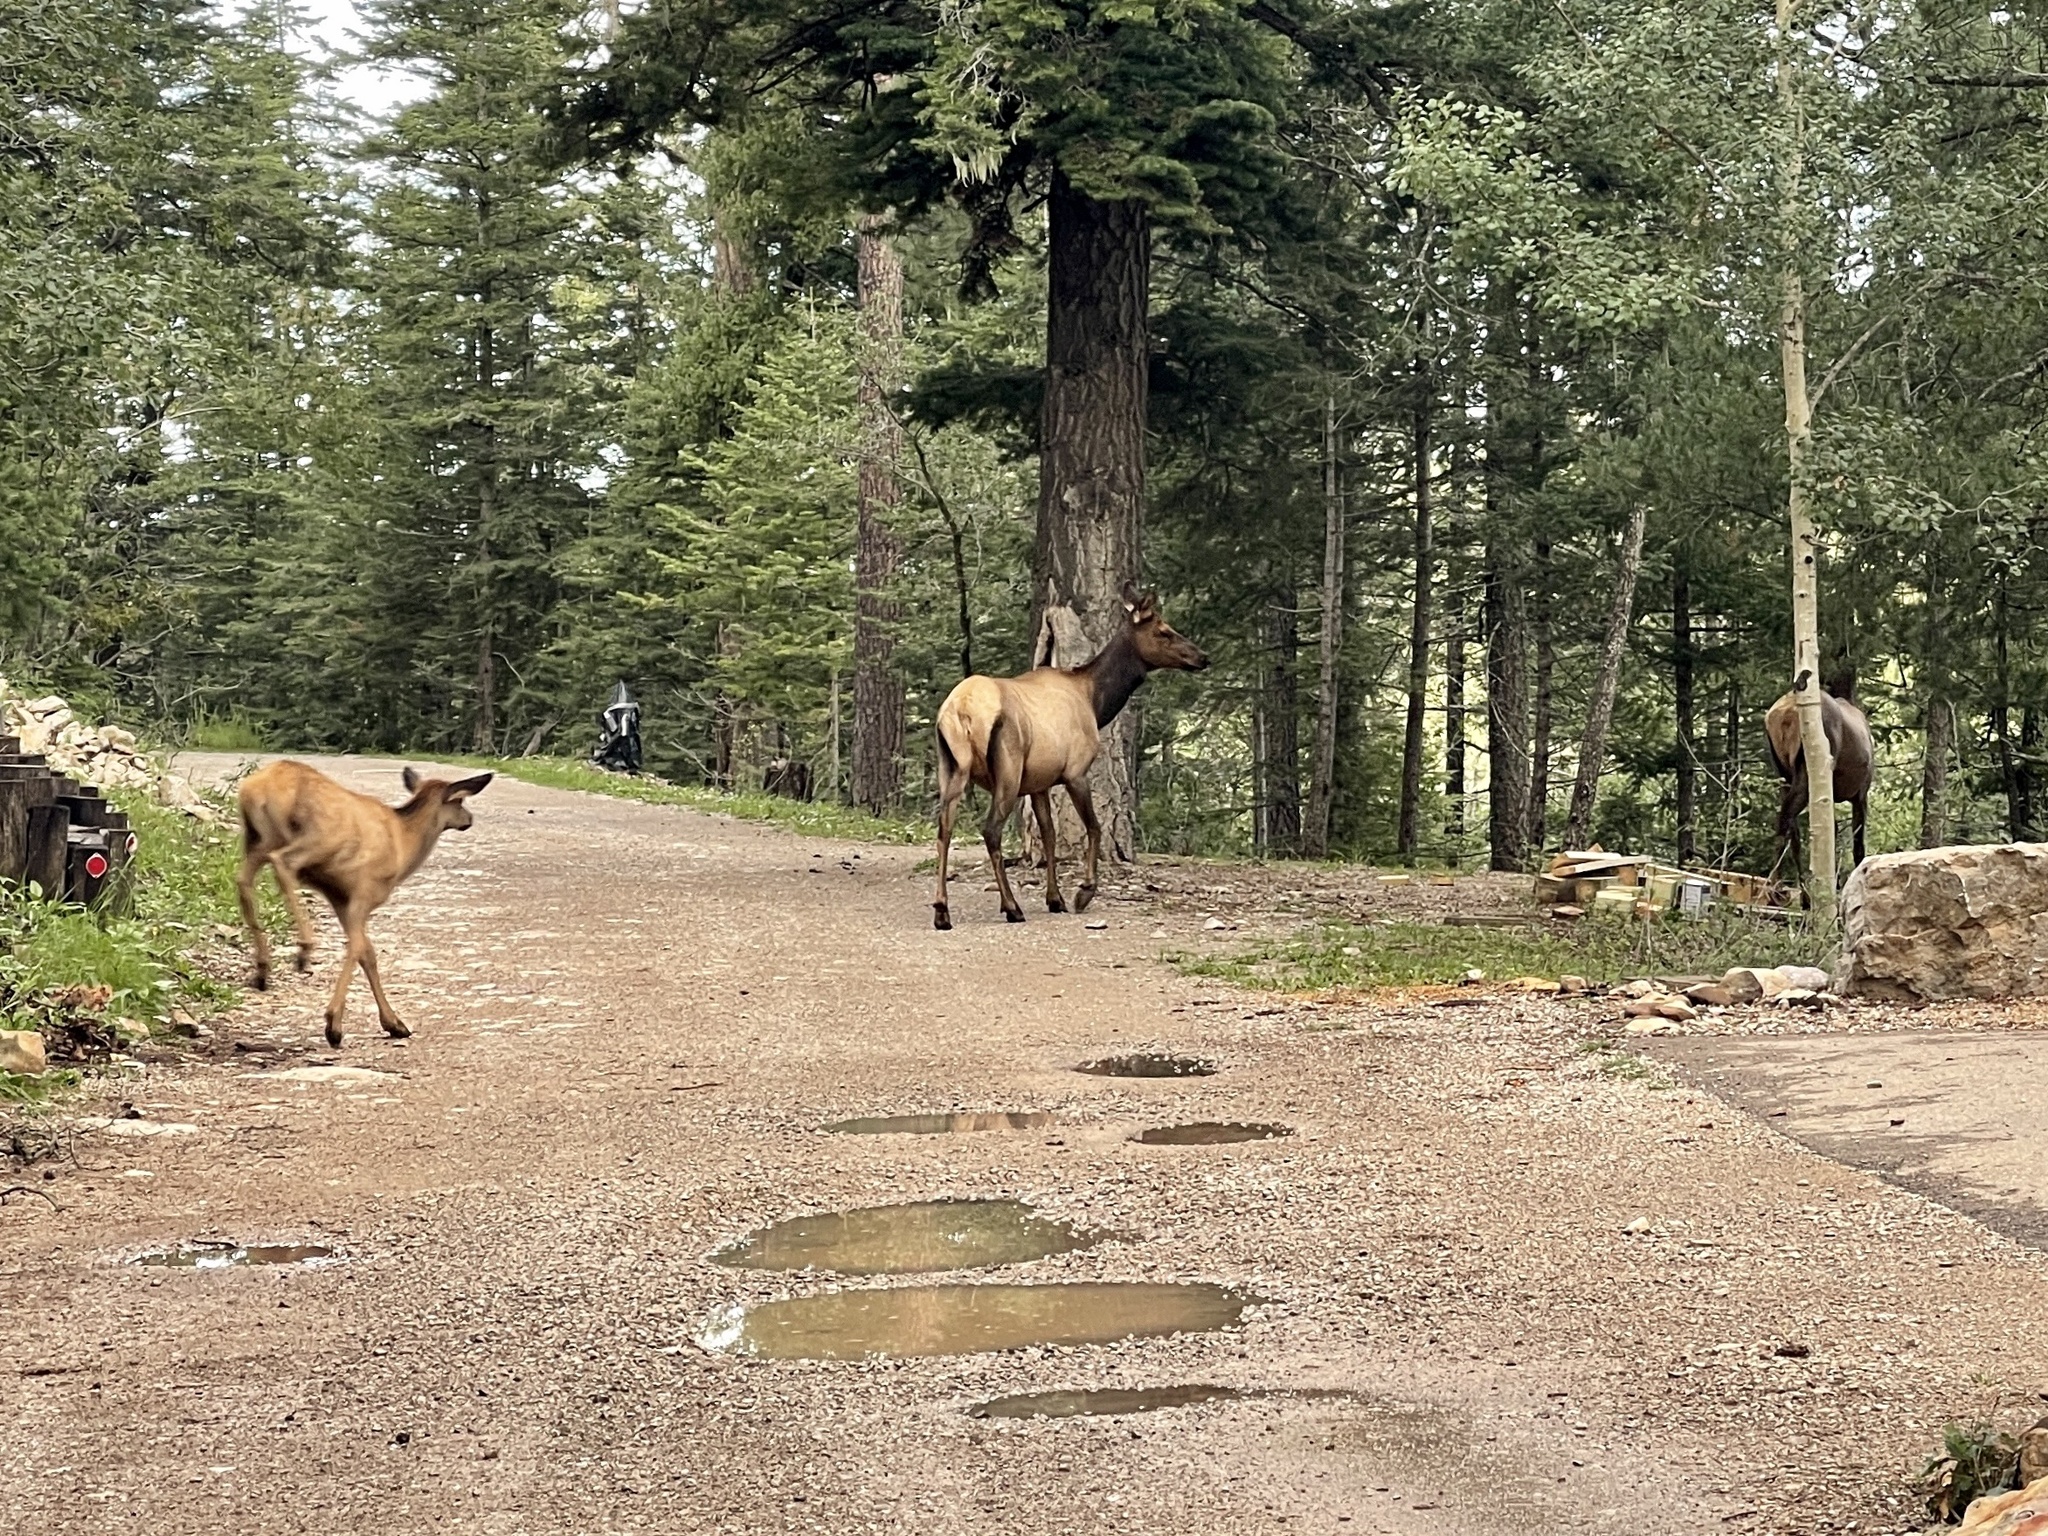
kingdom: Animalia
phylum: Chordata
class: Mammalia
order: Artiodactyla
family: Cervidae
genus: Cervus
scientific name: Cervus elaphus
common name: Red deer
